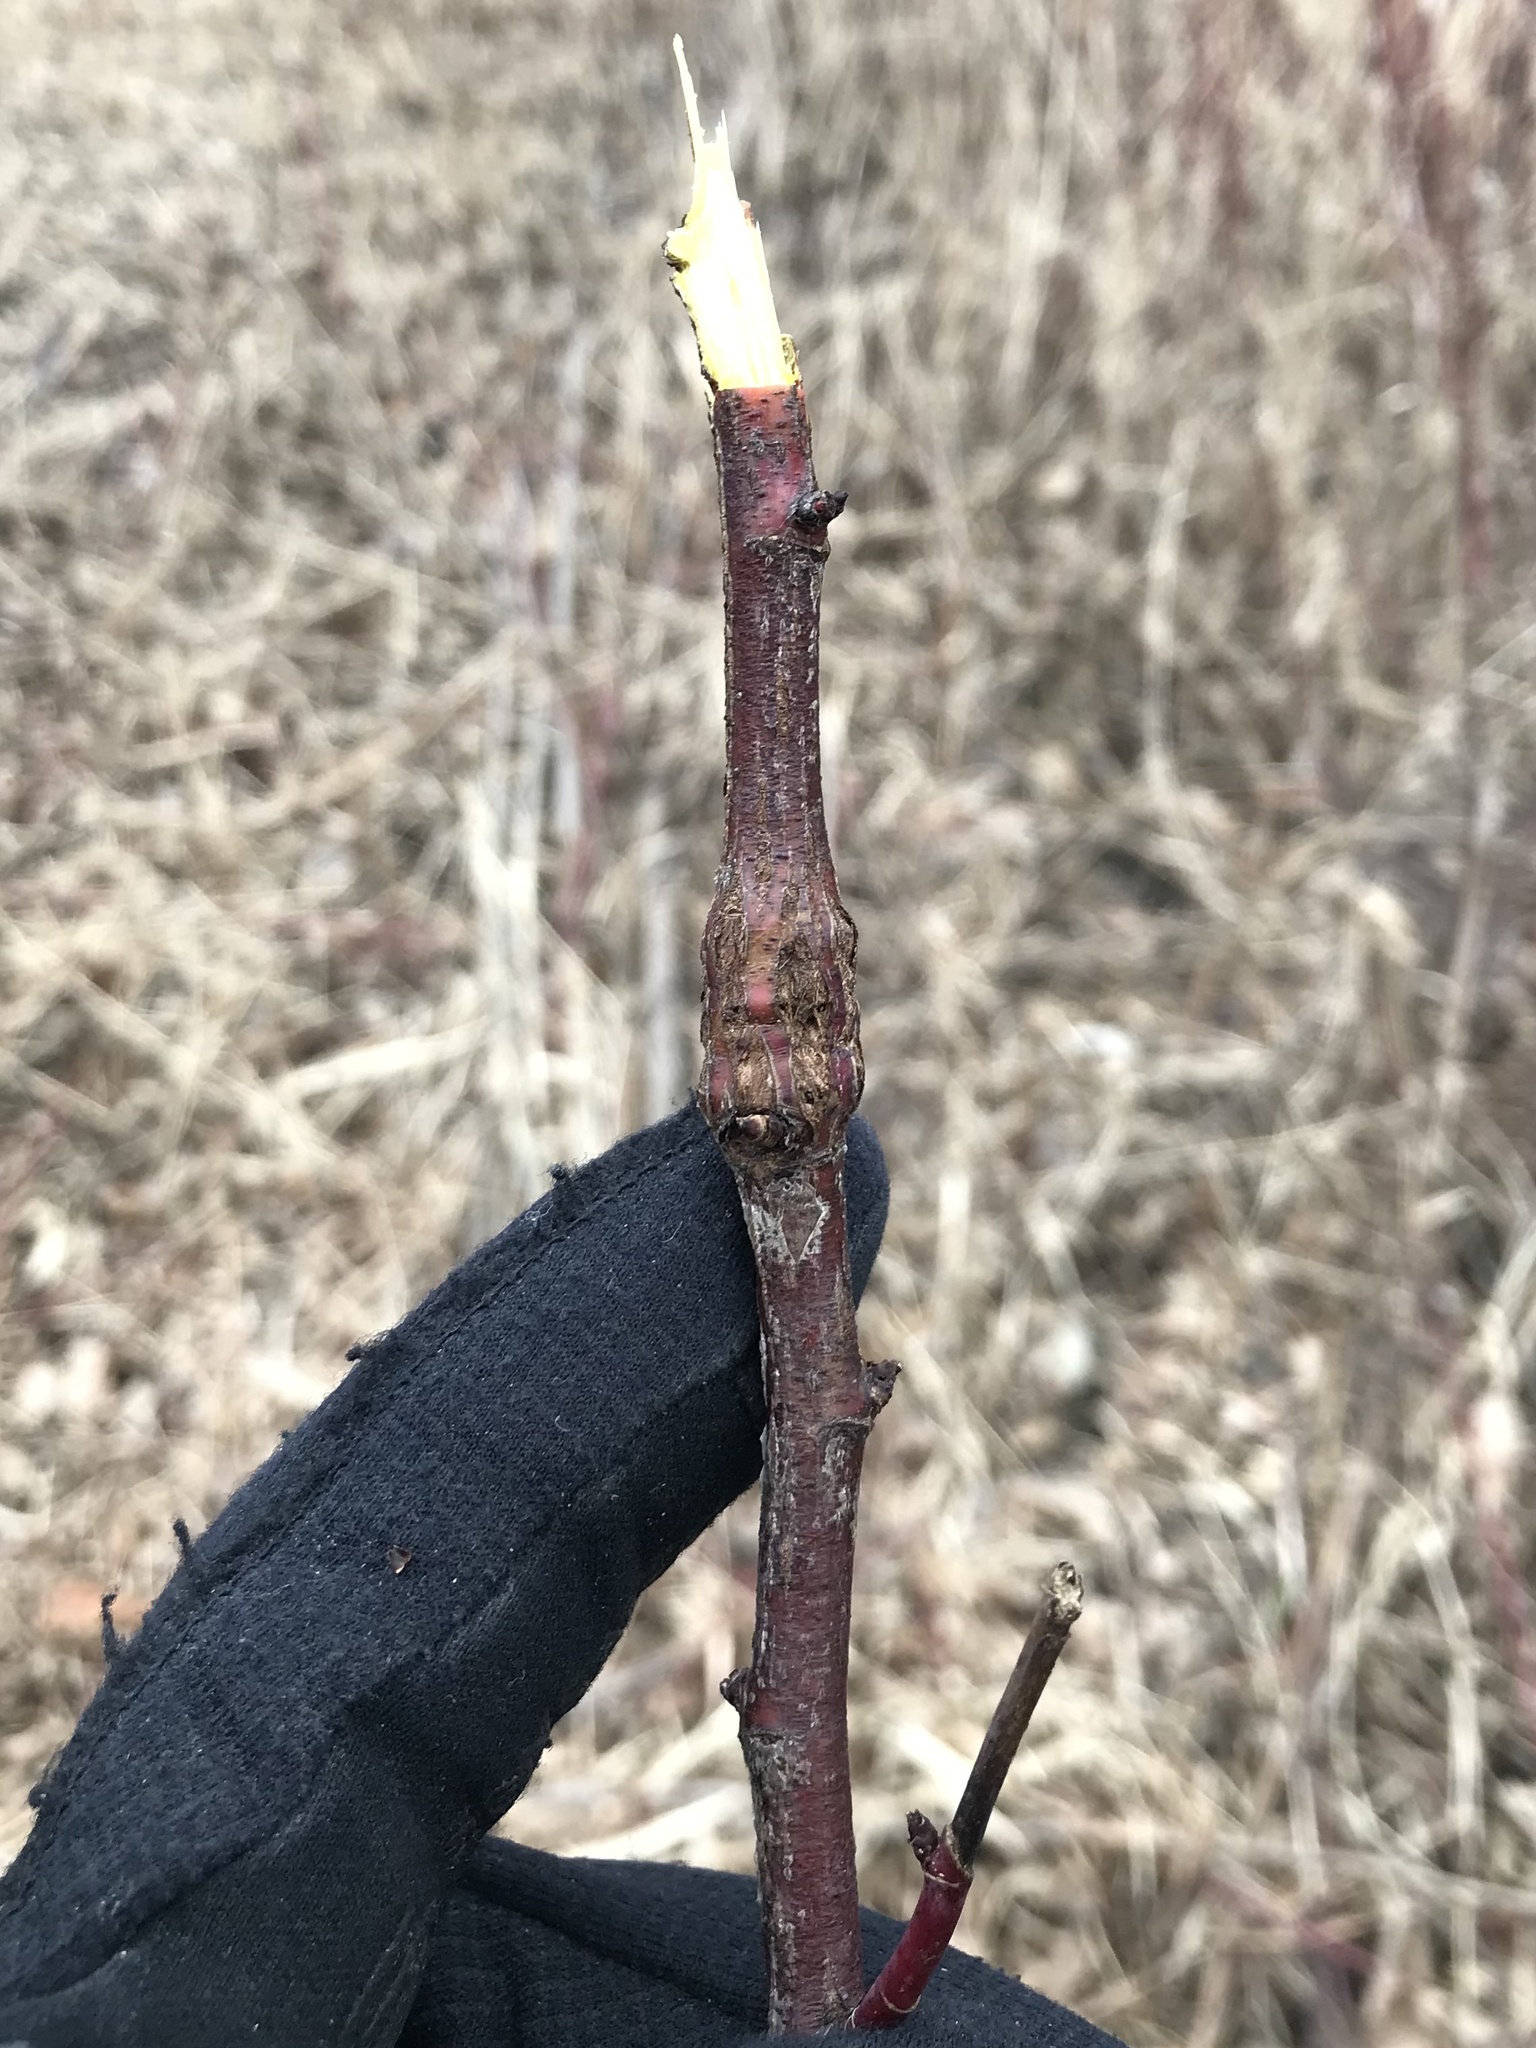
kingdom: Animalia
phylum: Arthropoda
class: Insecta
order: Coleoptera
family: Buprestidae
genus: Agrilus
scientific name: Agrilus cuprescens
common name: Rose stem girdler
